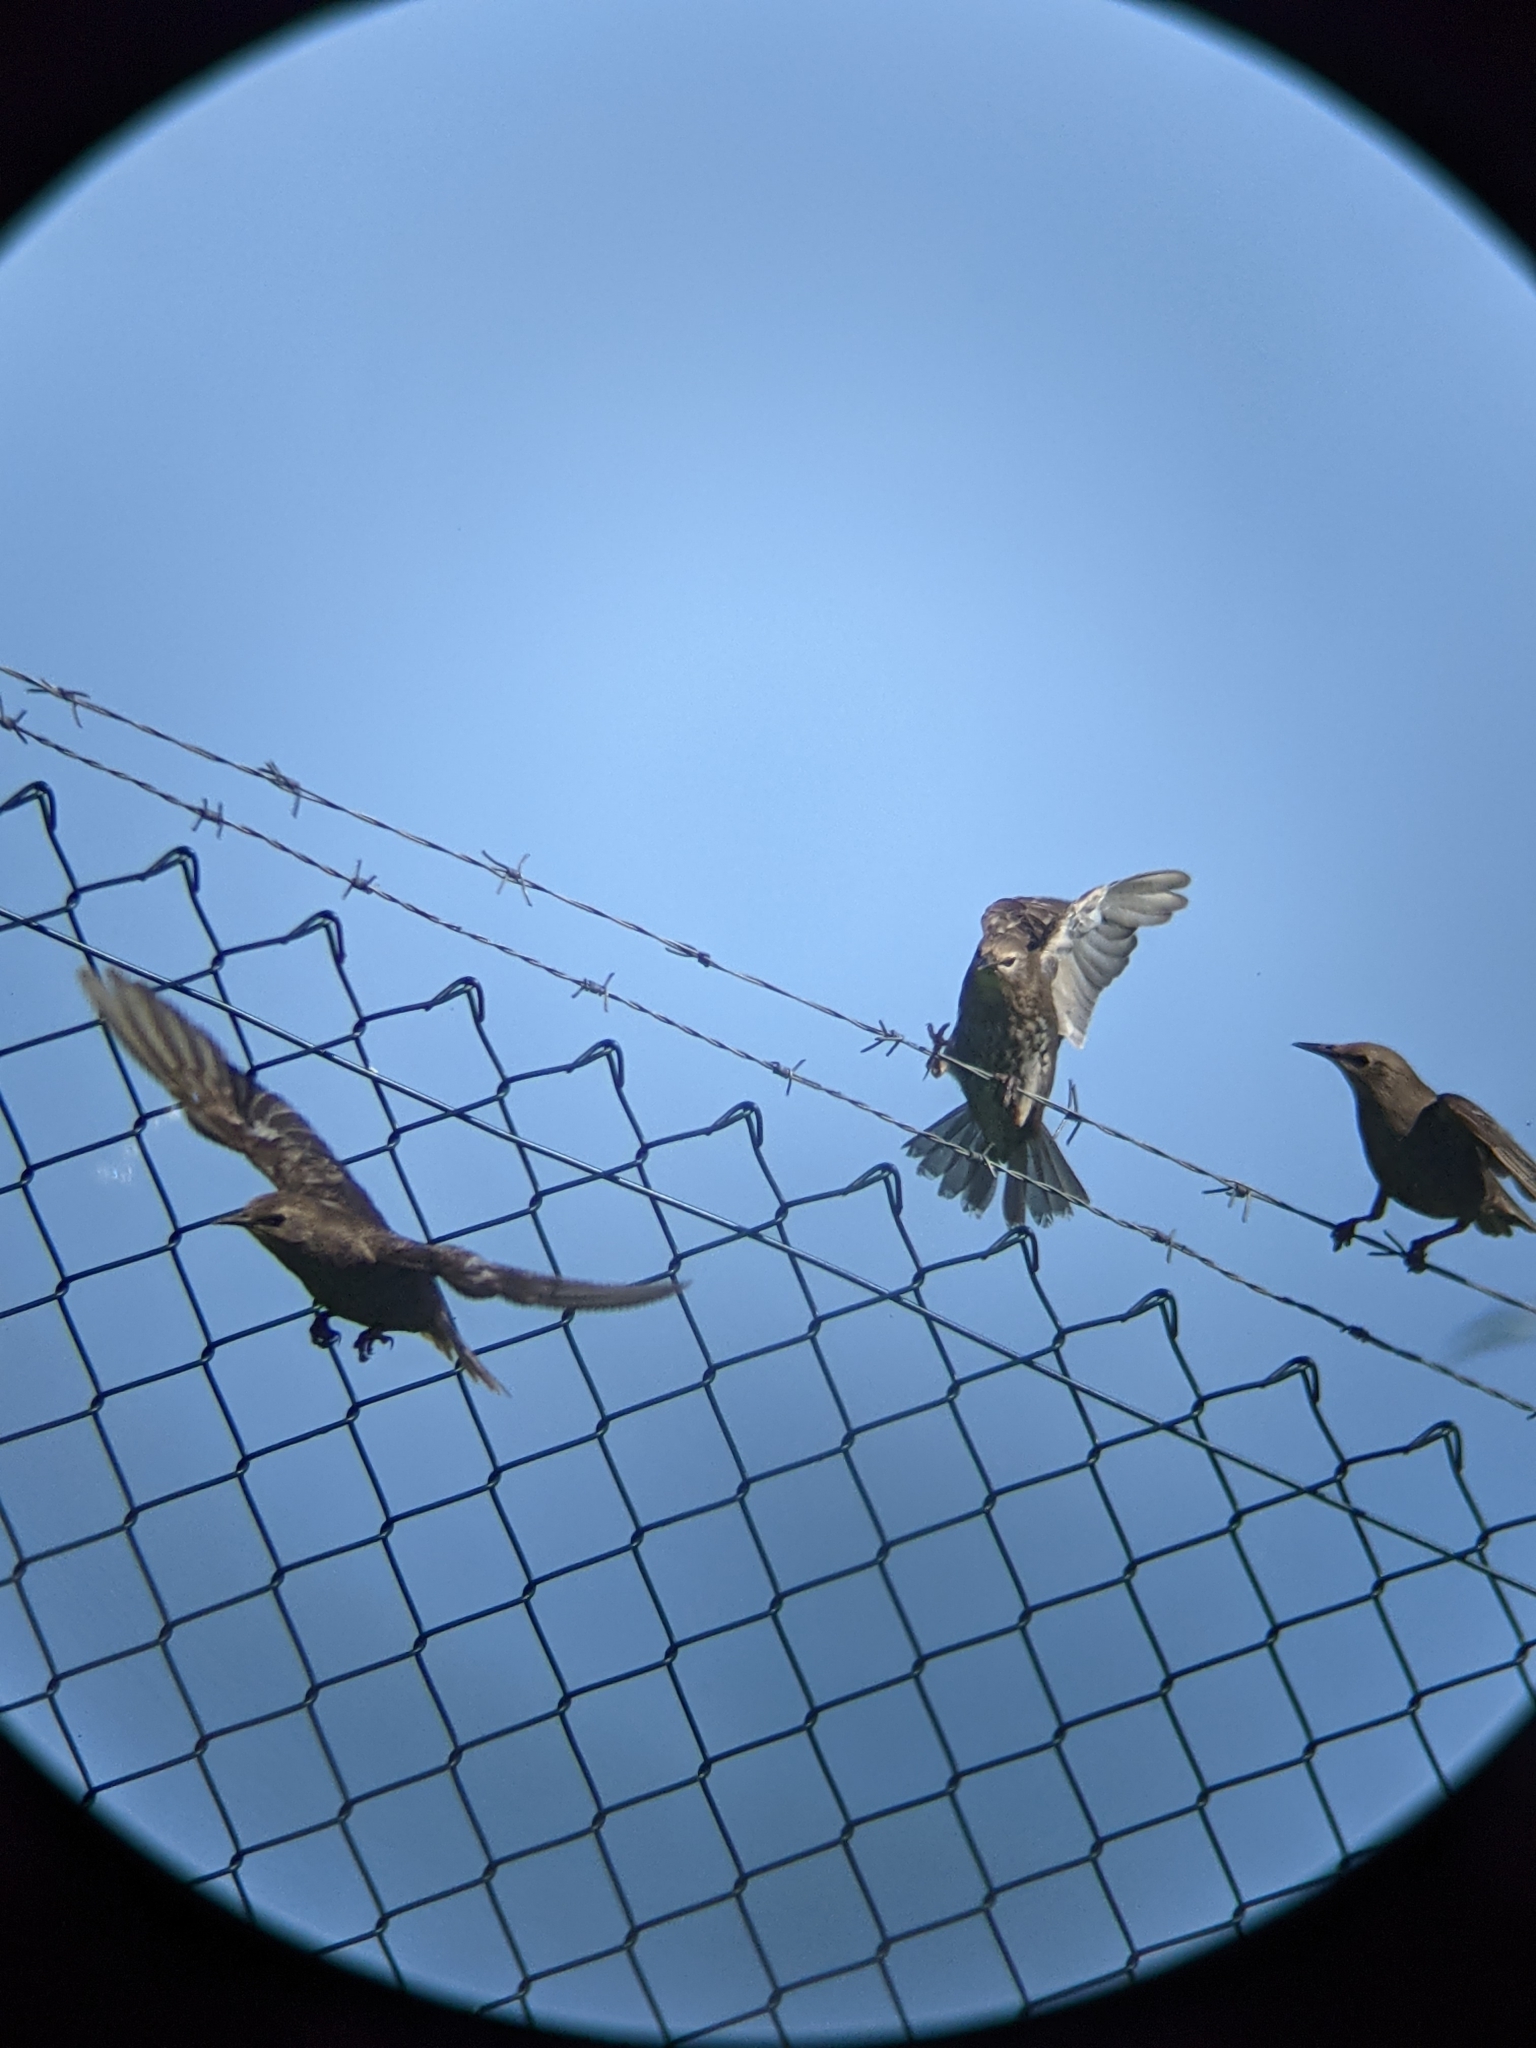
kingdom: Animalia
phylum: Chordata
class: Aves
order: Passeriformes
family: Sturnidae
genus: Sturnus
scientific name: Sturnus vulgaris
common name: Common starling
